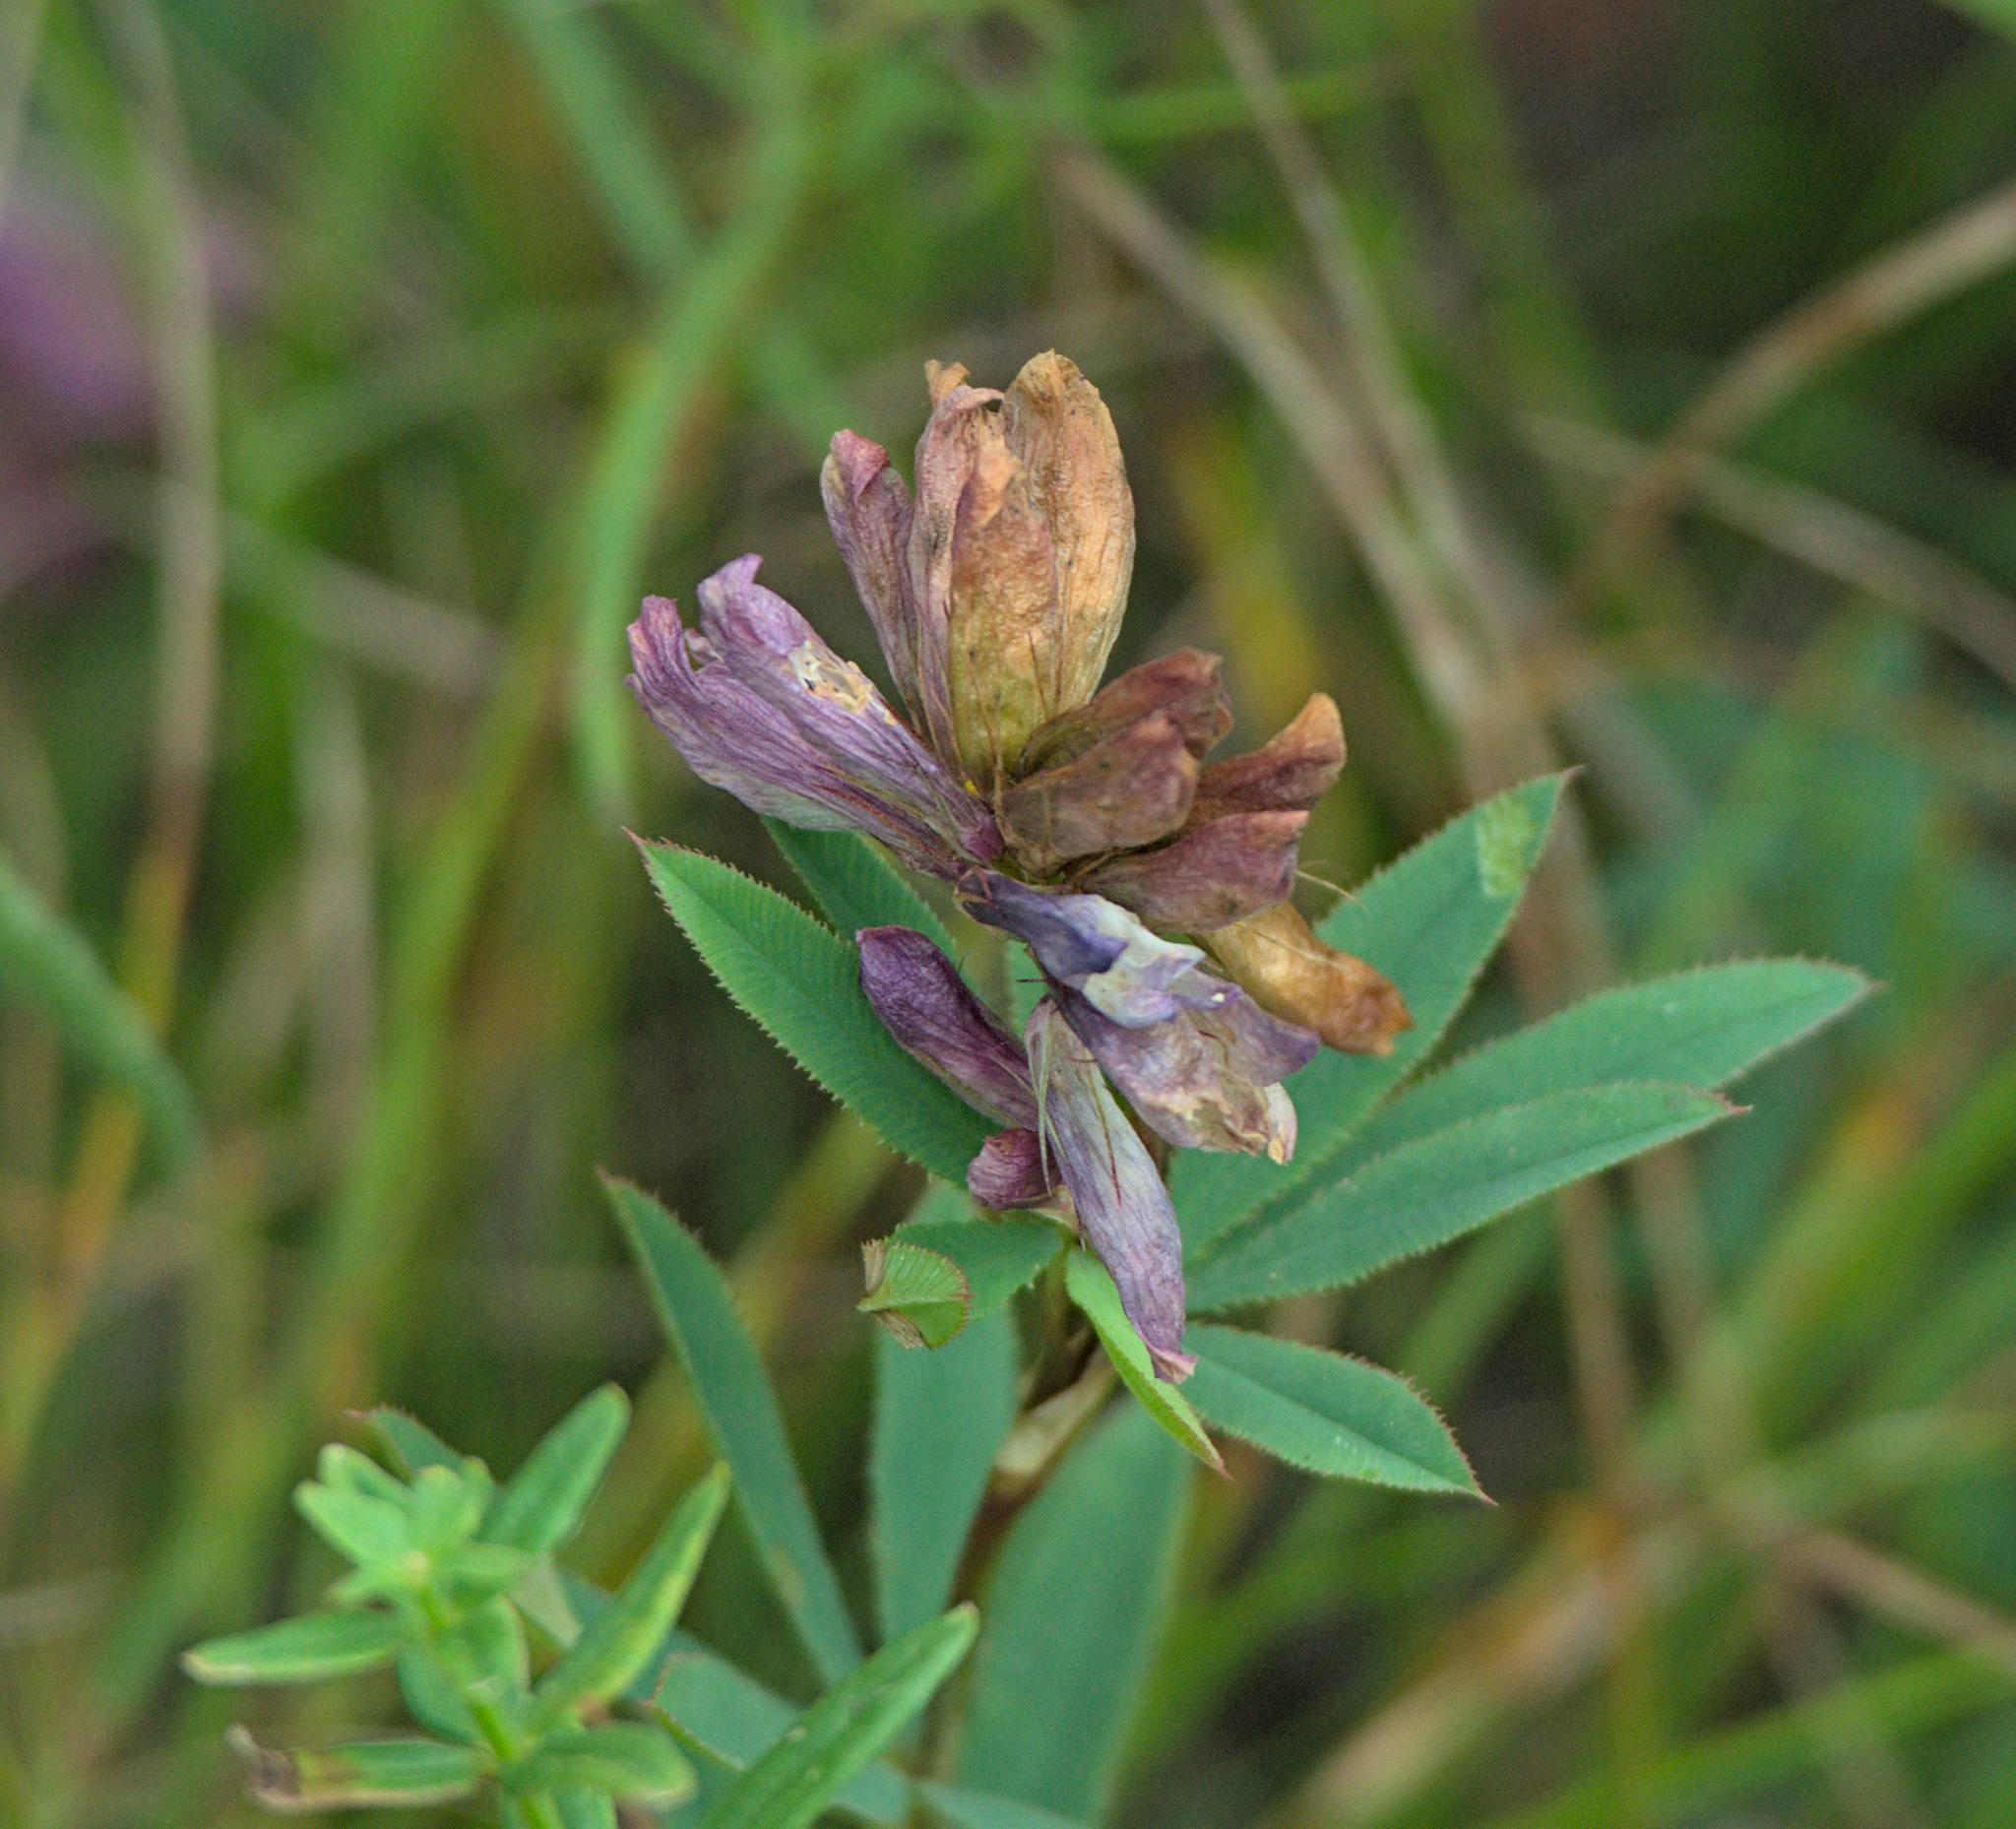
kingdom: Plantae
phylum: Tracheophyta
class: Magnoliopsida
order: Fabales
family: Fabaceae
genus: Trifolium
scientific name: Trifolium lupinaster
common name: Lupine clover
